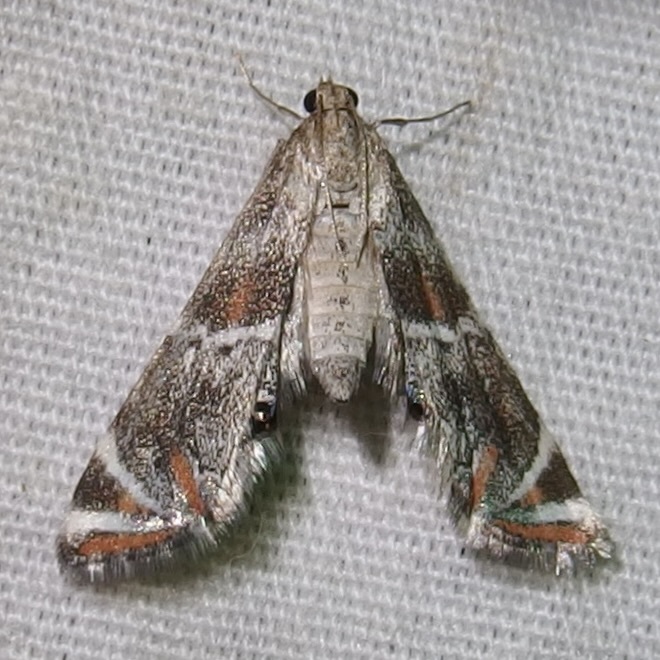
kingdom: Animalia
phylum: Arthropoda
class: Insecta
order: Lepidoptera
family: Crambidae
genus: Petrophila
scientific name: Petrophila jaliscalis
